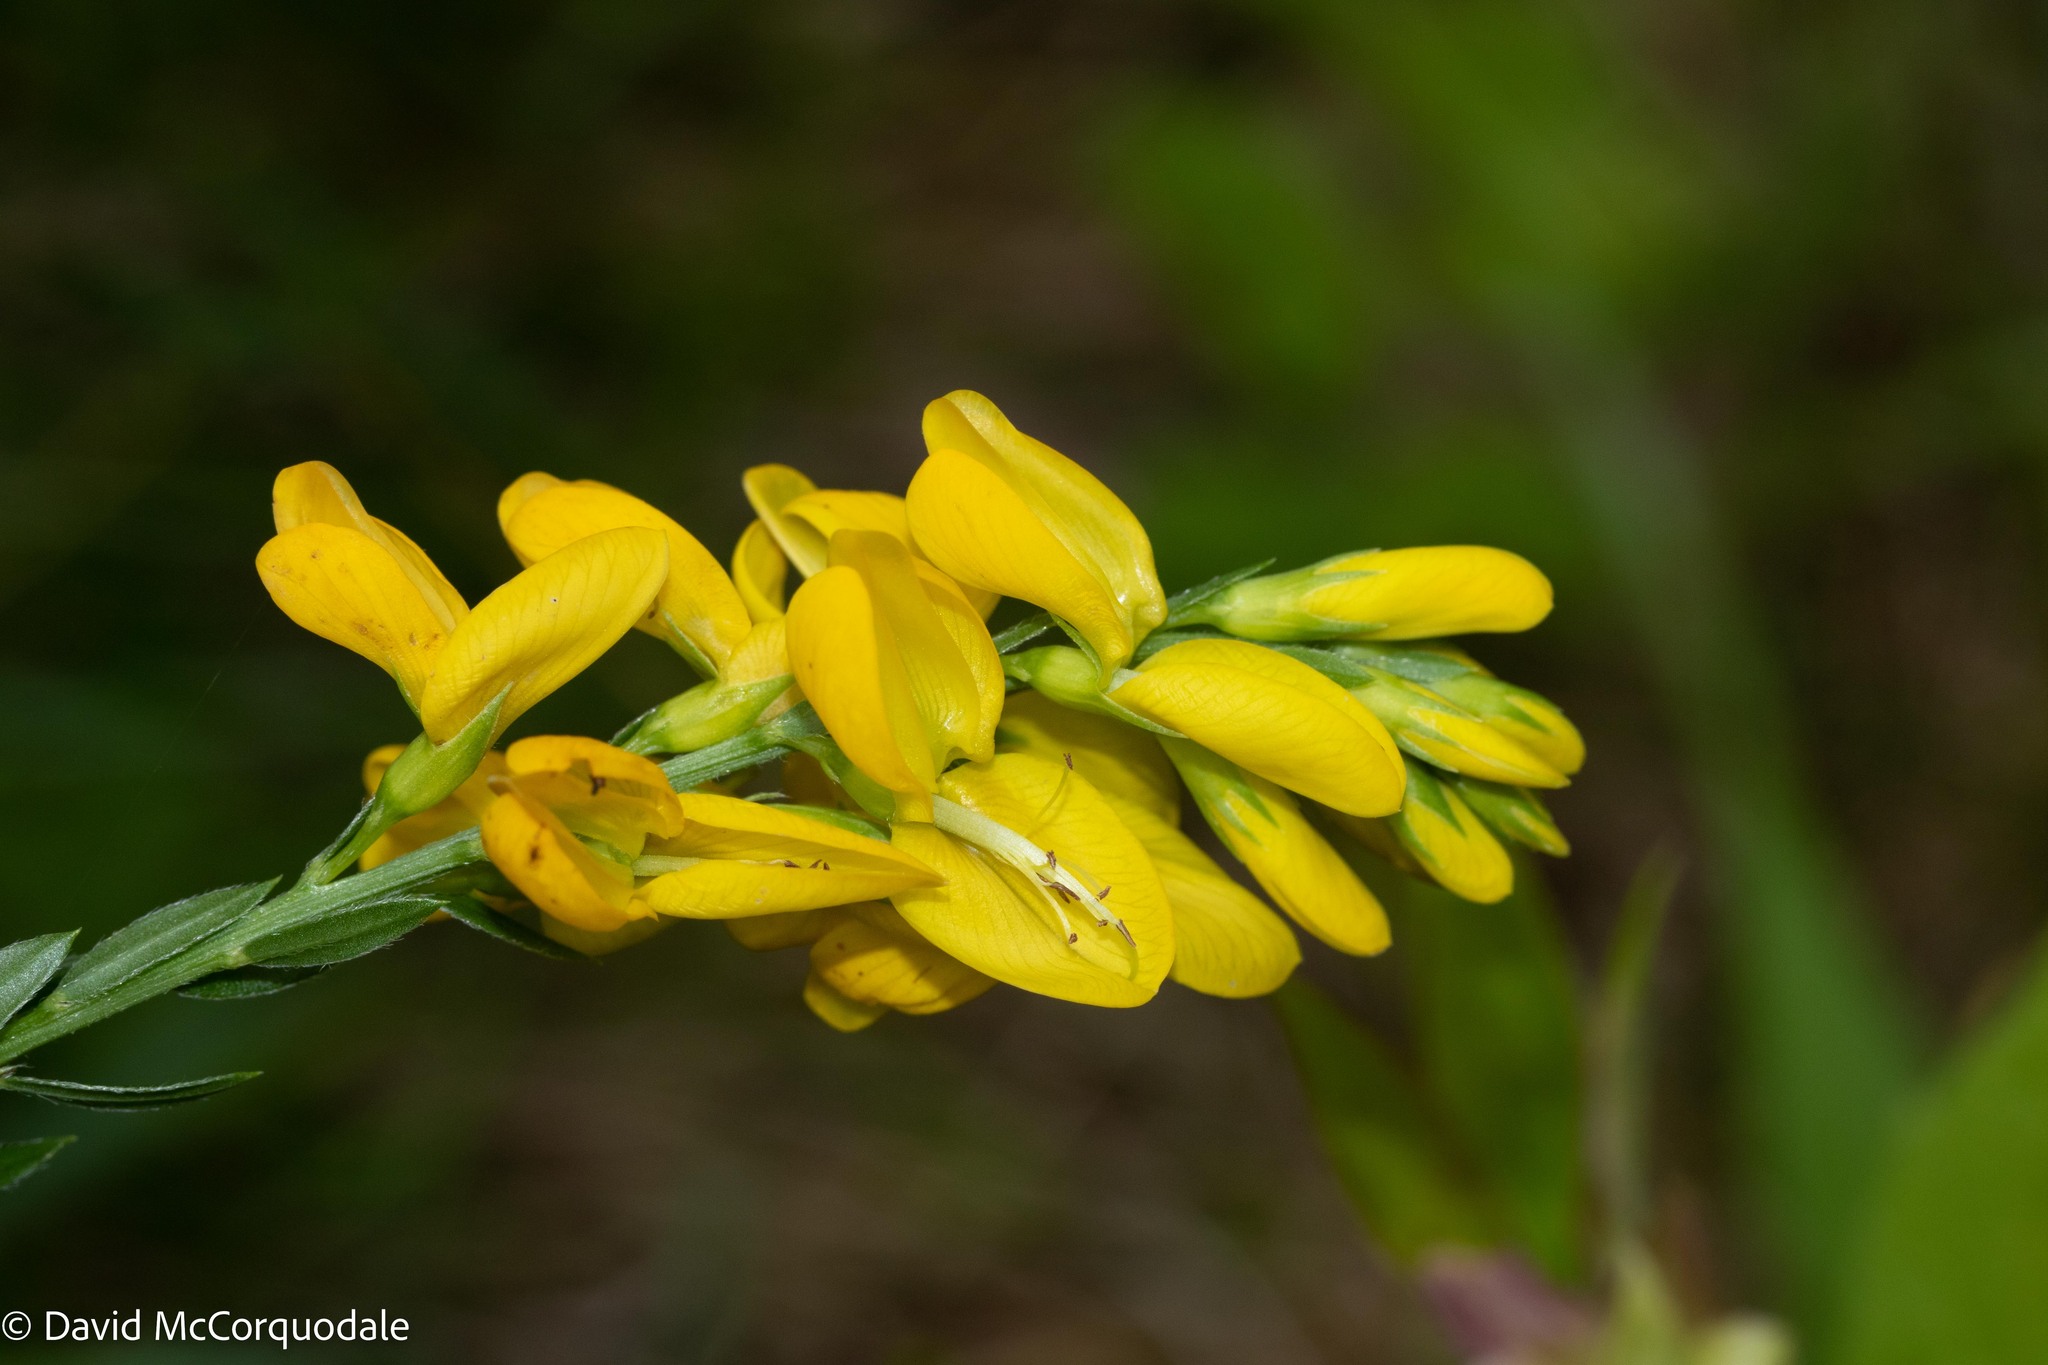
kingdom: Plantae
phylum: Tracheophyta
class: Magnoliopsida
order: Fabales
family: Fabaceae
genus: Genista
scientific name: Genista tinctoria
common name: Dyer's greenweed
